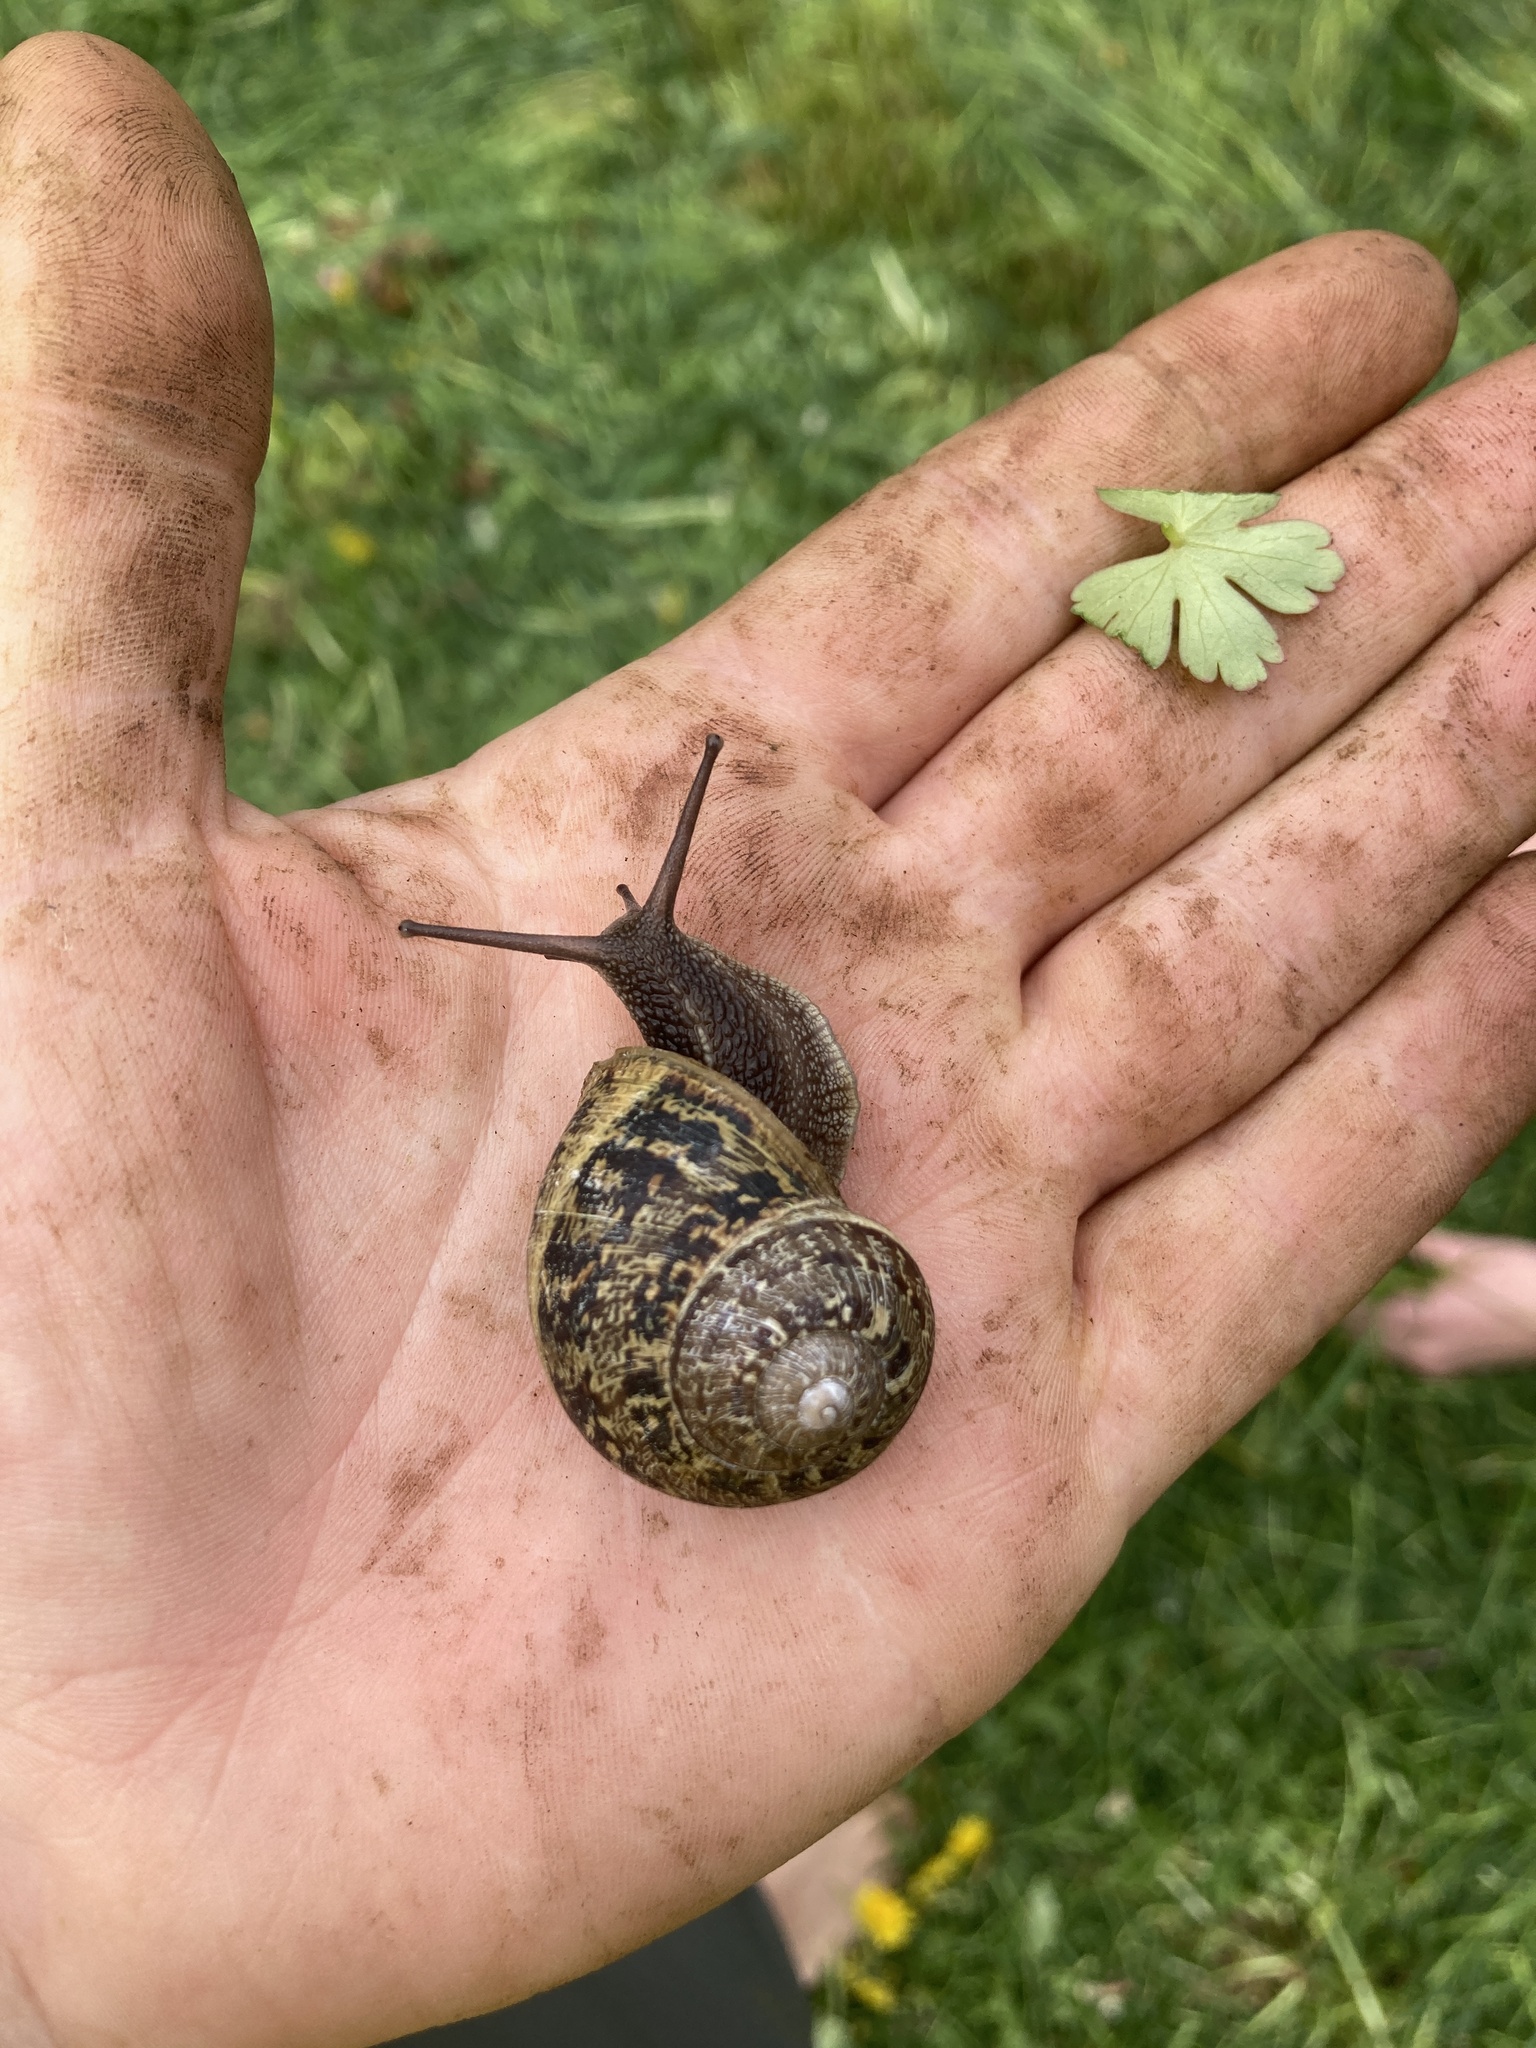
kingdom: Animalia
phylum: Mollusca
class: Gastropoda
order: Stylommatophora
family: Helicidae
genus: Cornu
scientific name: Cornu aspersum
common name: Brown garden snail
